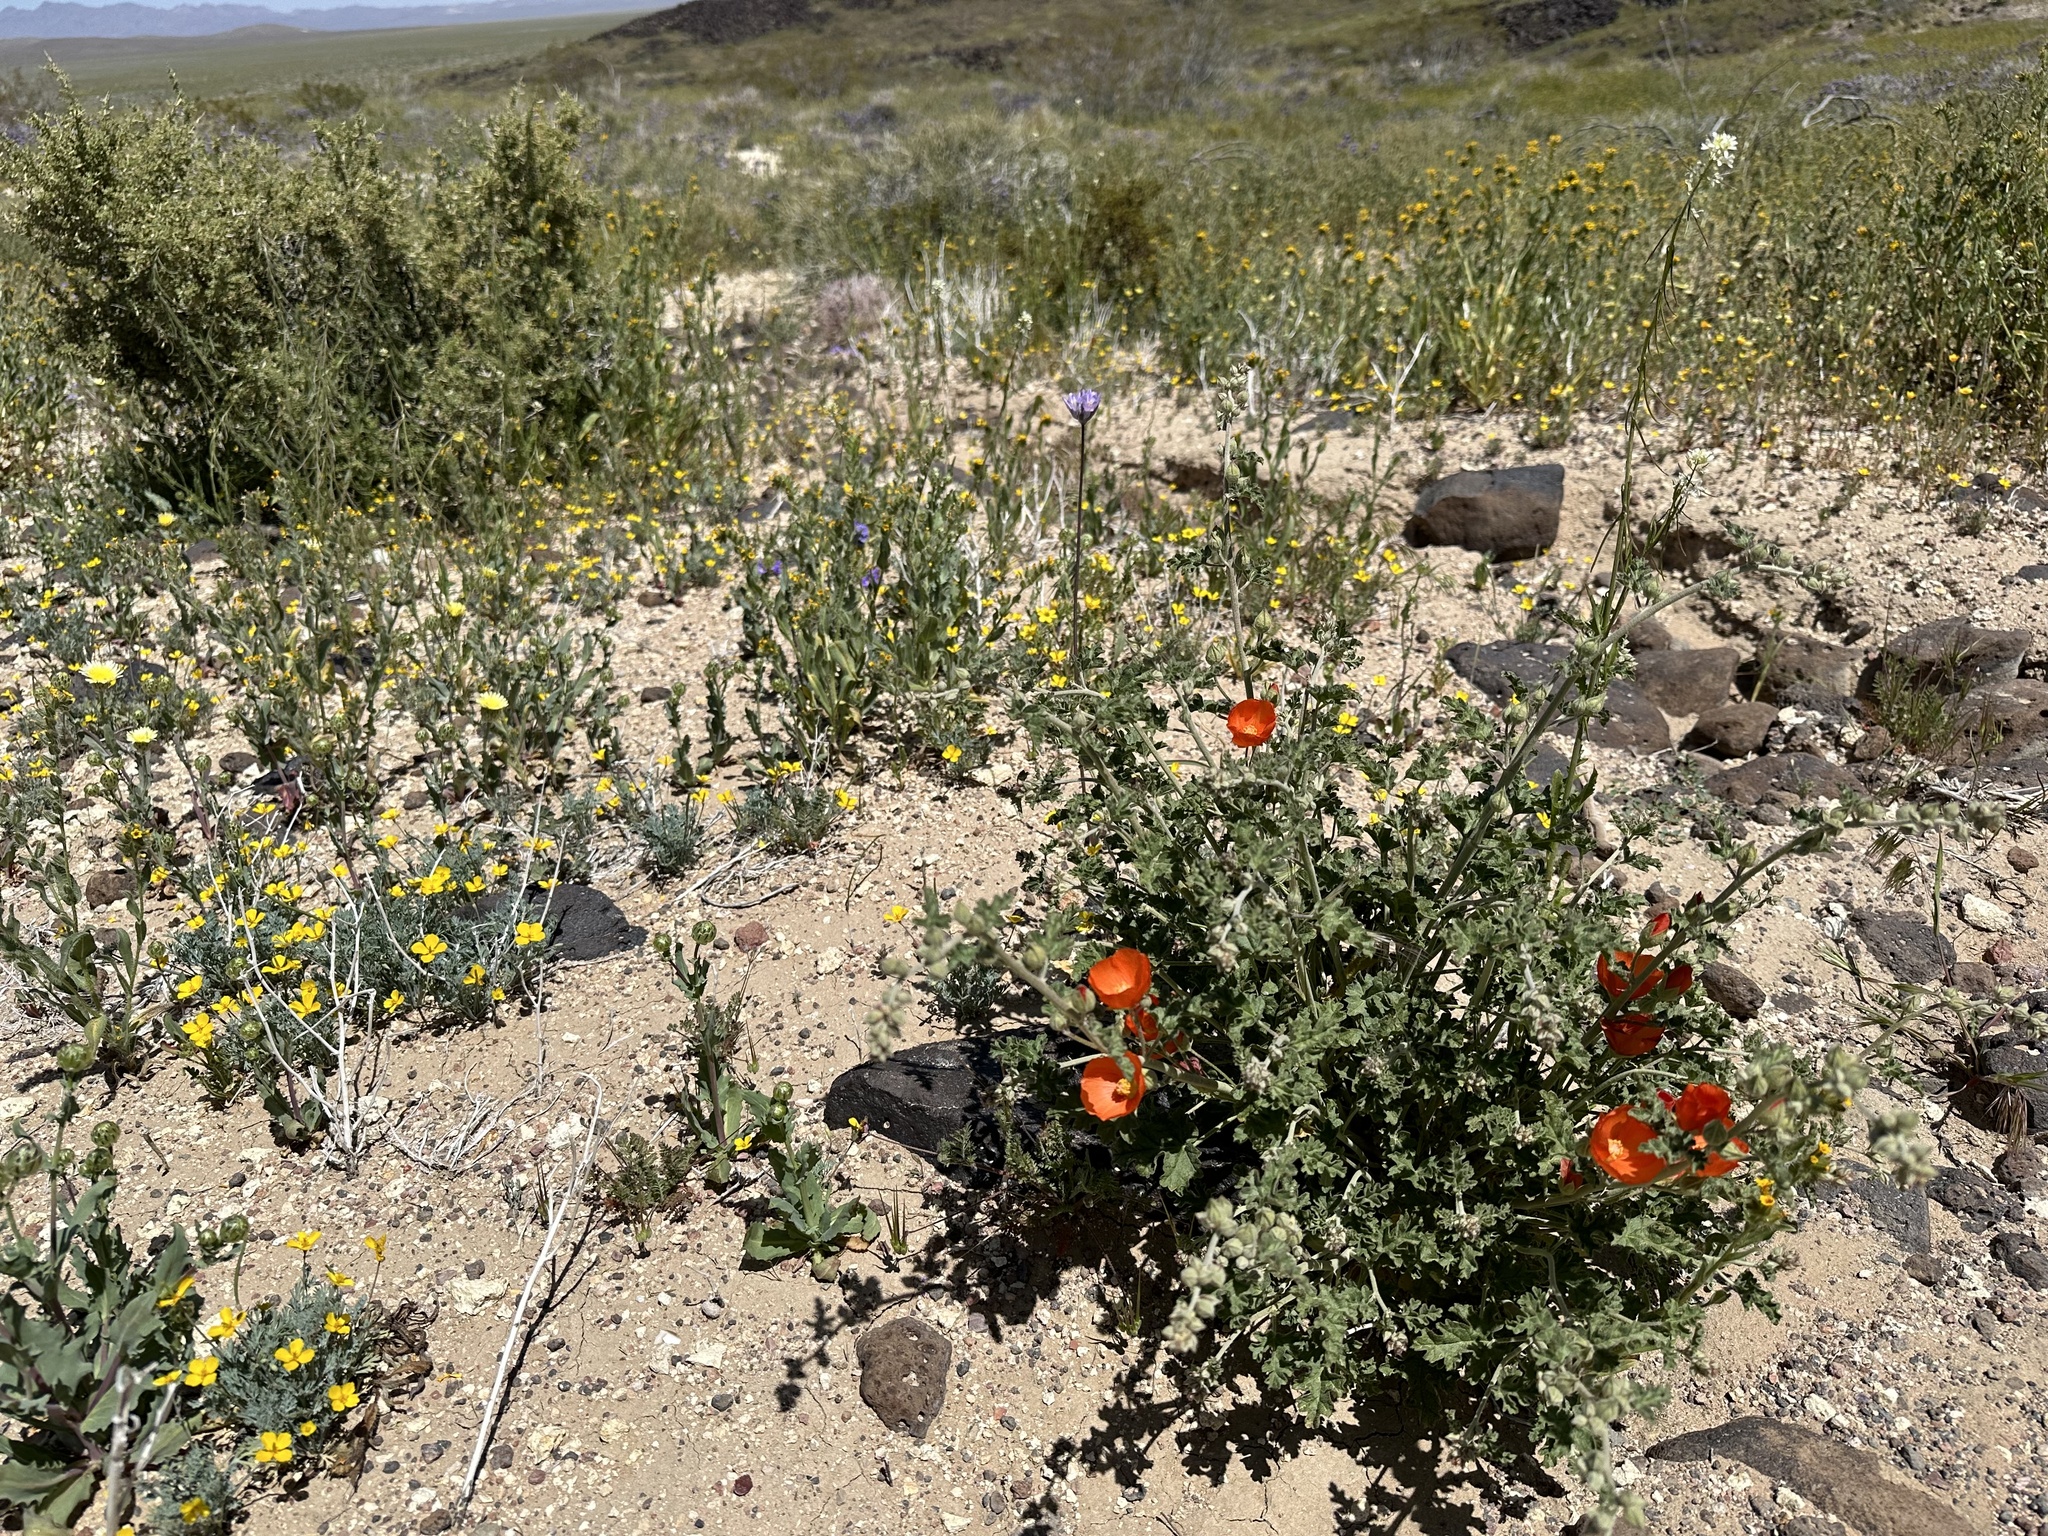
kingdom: Plantae
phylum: Tracheophyta
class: Magnoliopsida
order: Malvales
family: Malvaceae
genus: Sphaeralcea
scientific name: Sphaeralcea ambigua
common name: Apricot globe-mallow
